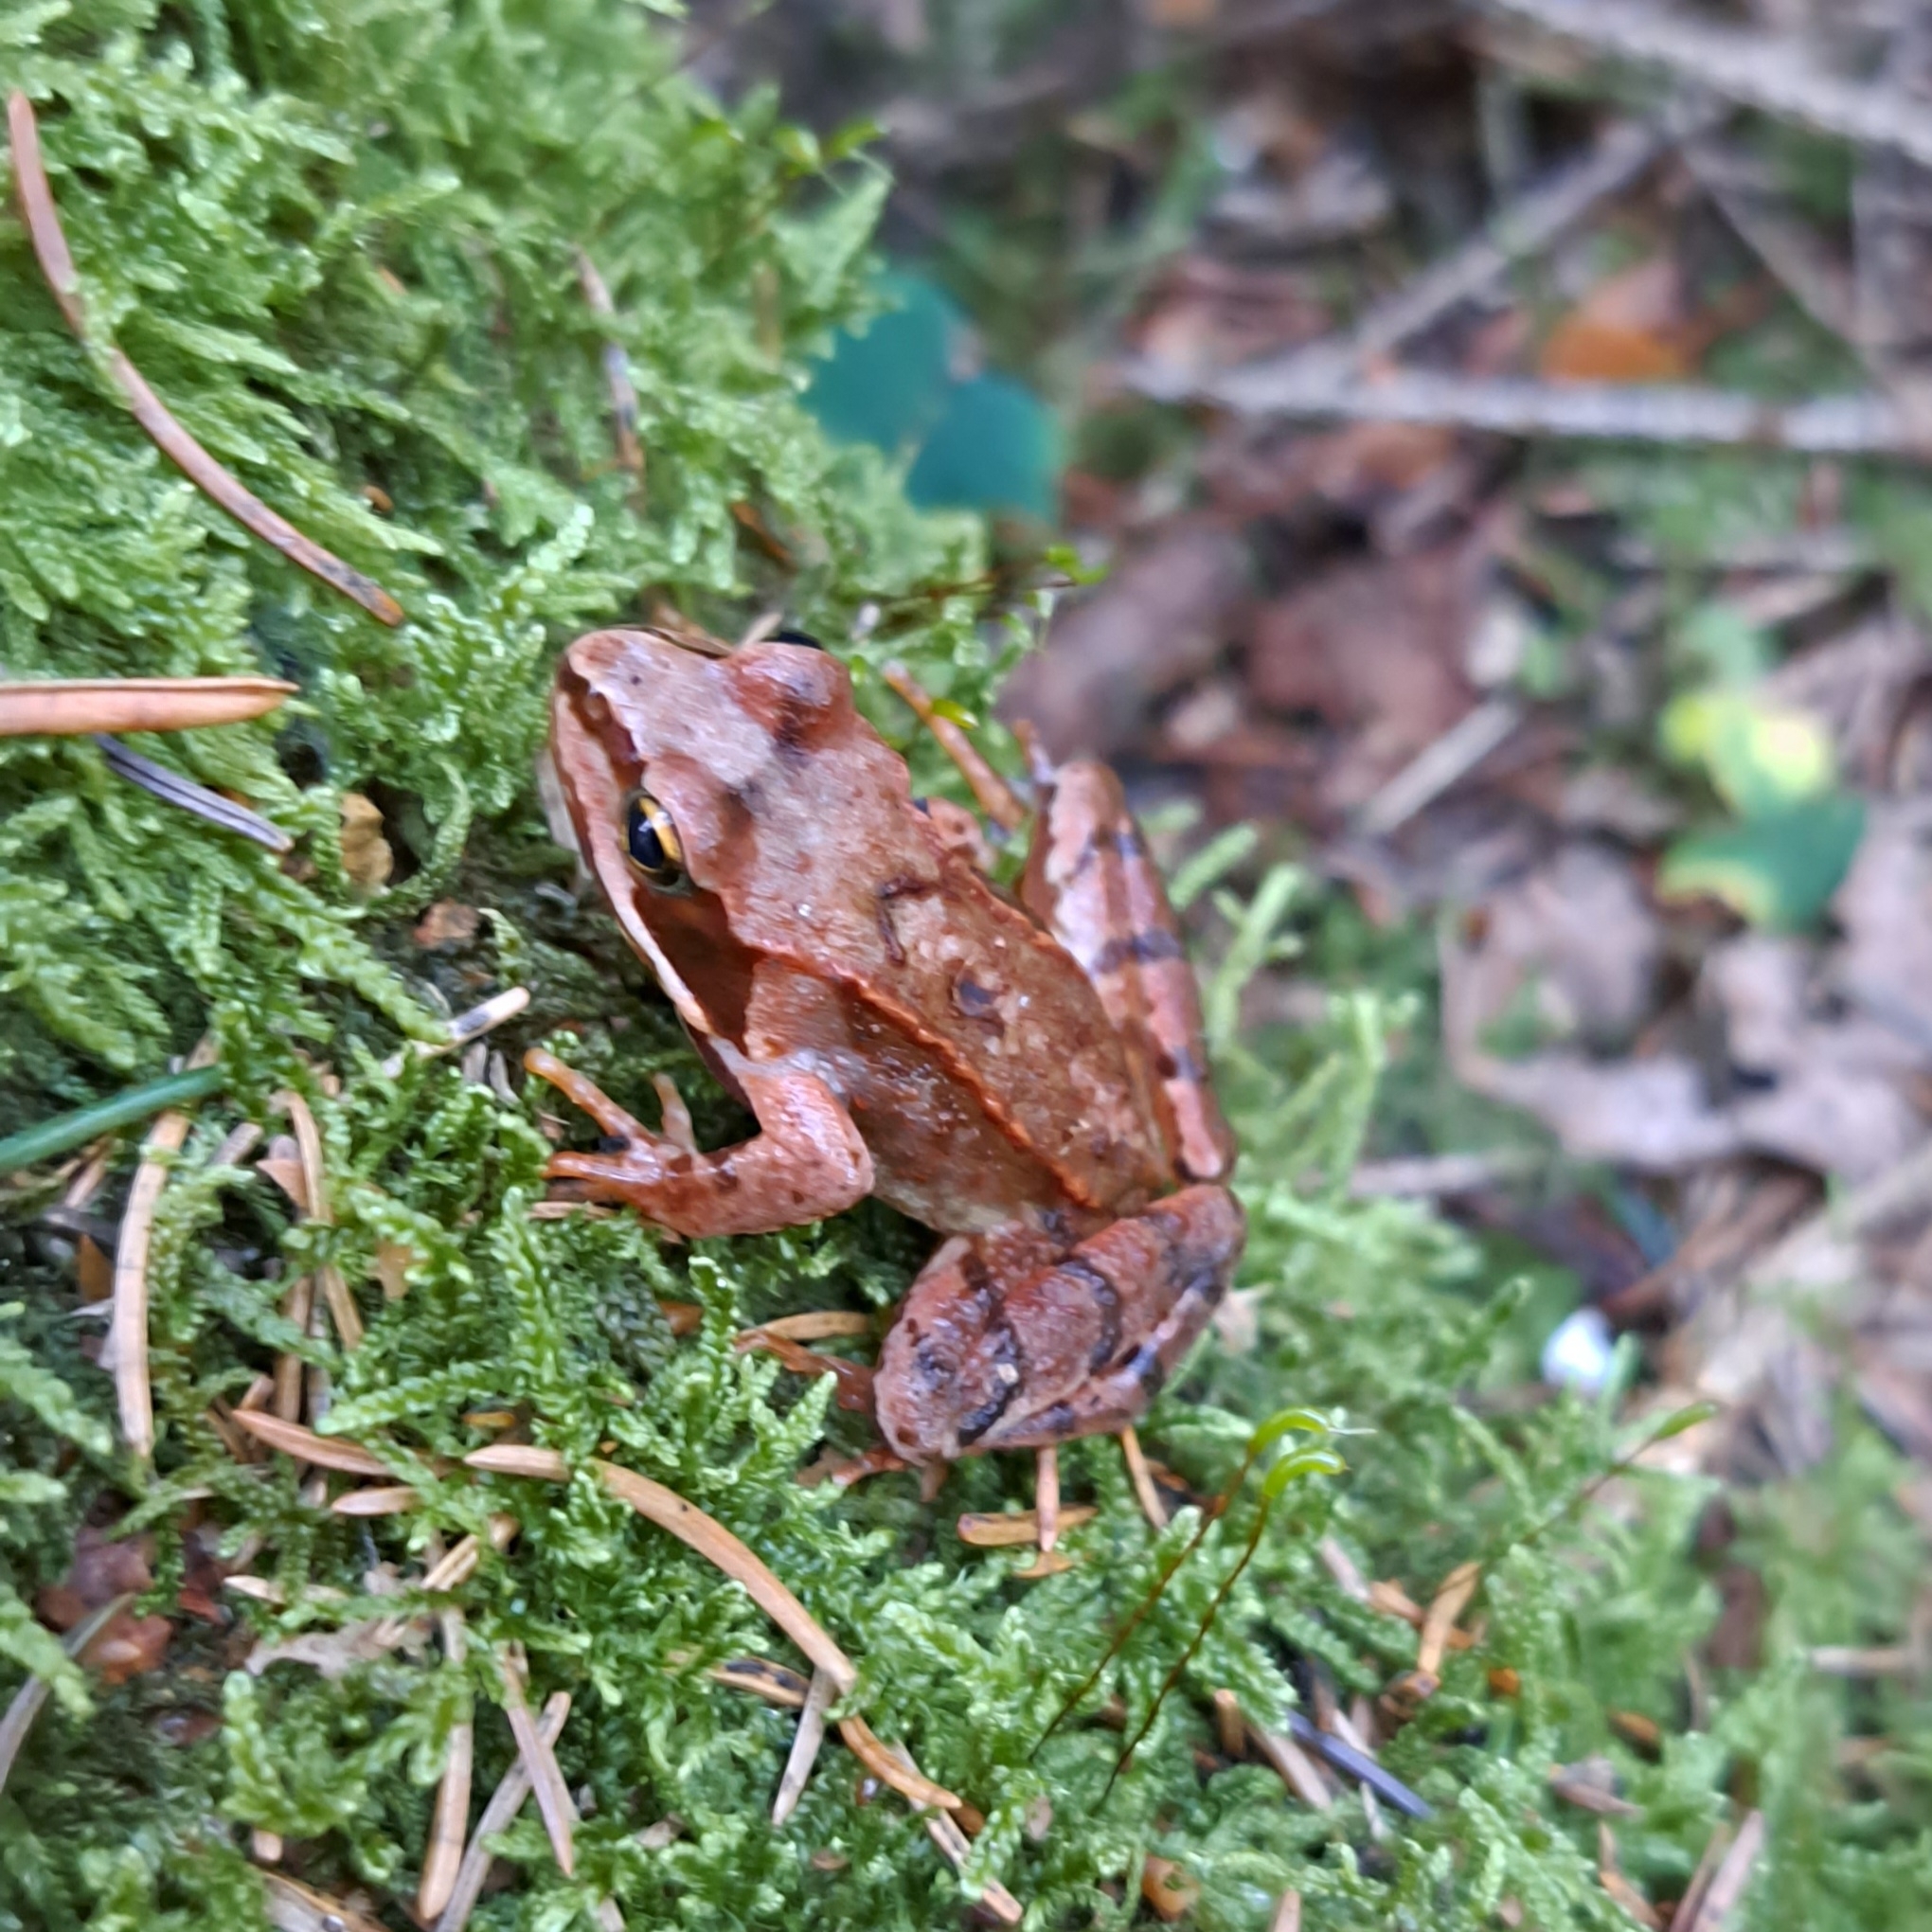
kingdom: Animalia
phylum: Chordata
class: Amphibia
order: Anura
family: Ranidae
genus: Rana
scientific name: Rana temporaria
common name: Common frog
